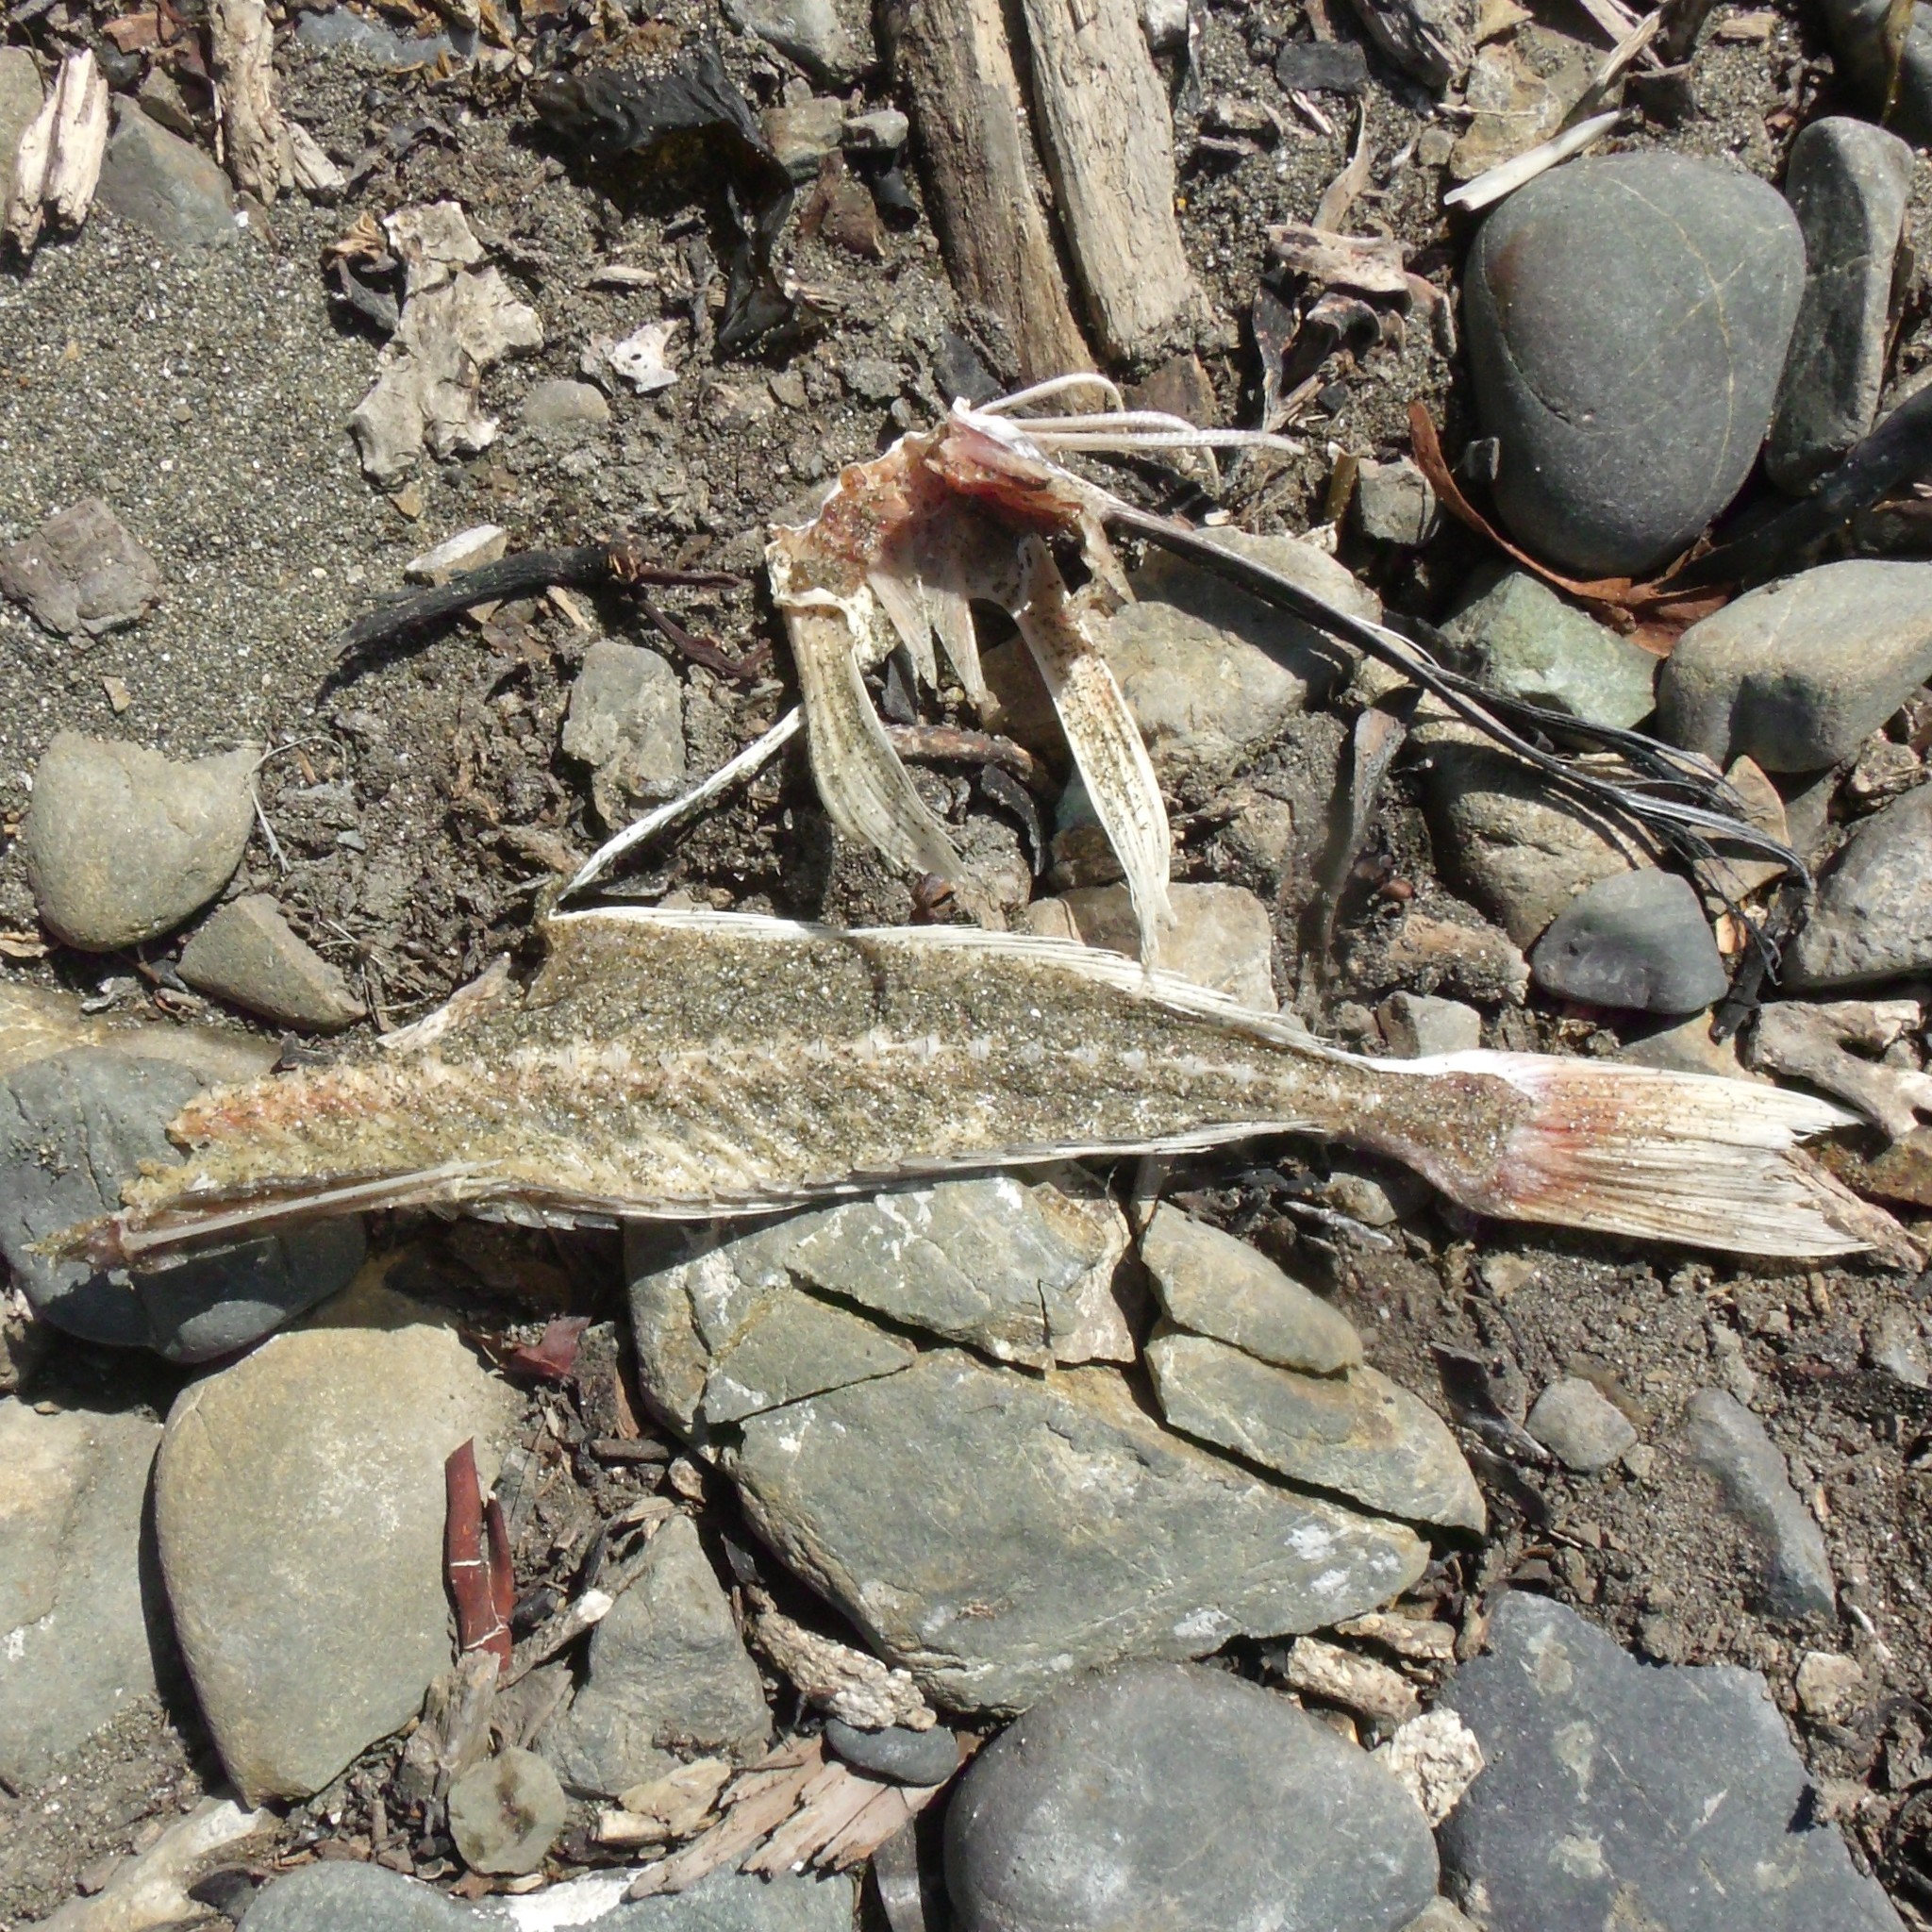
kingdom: Animalia
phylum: Chordata
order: Scorpaeniformes
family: Triglidae
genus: Chelidonichthys
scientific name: Chelidonichthys kumu
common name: Bluefin gurnard
